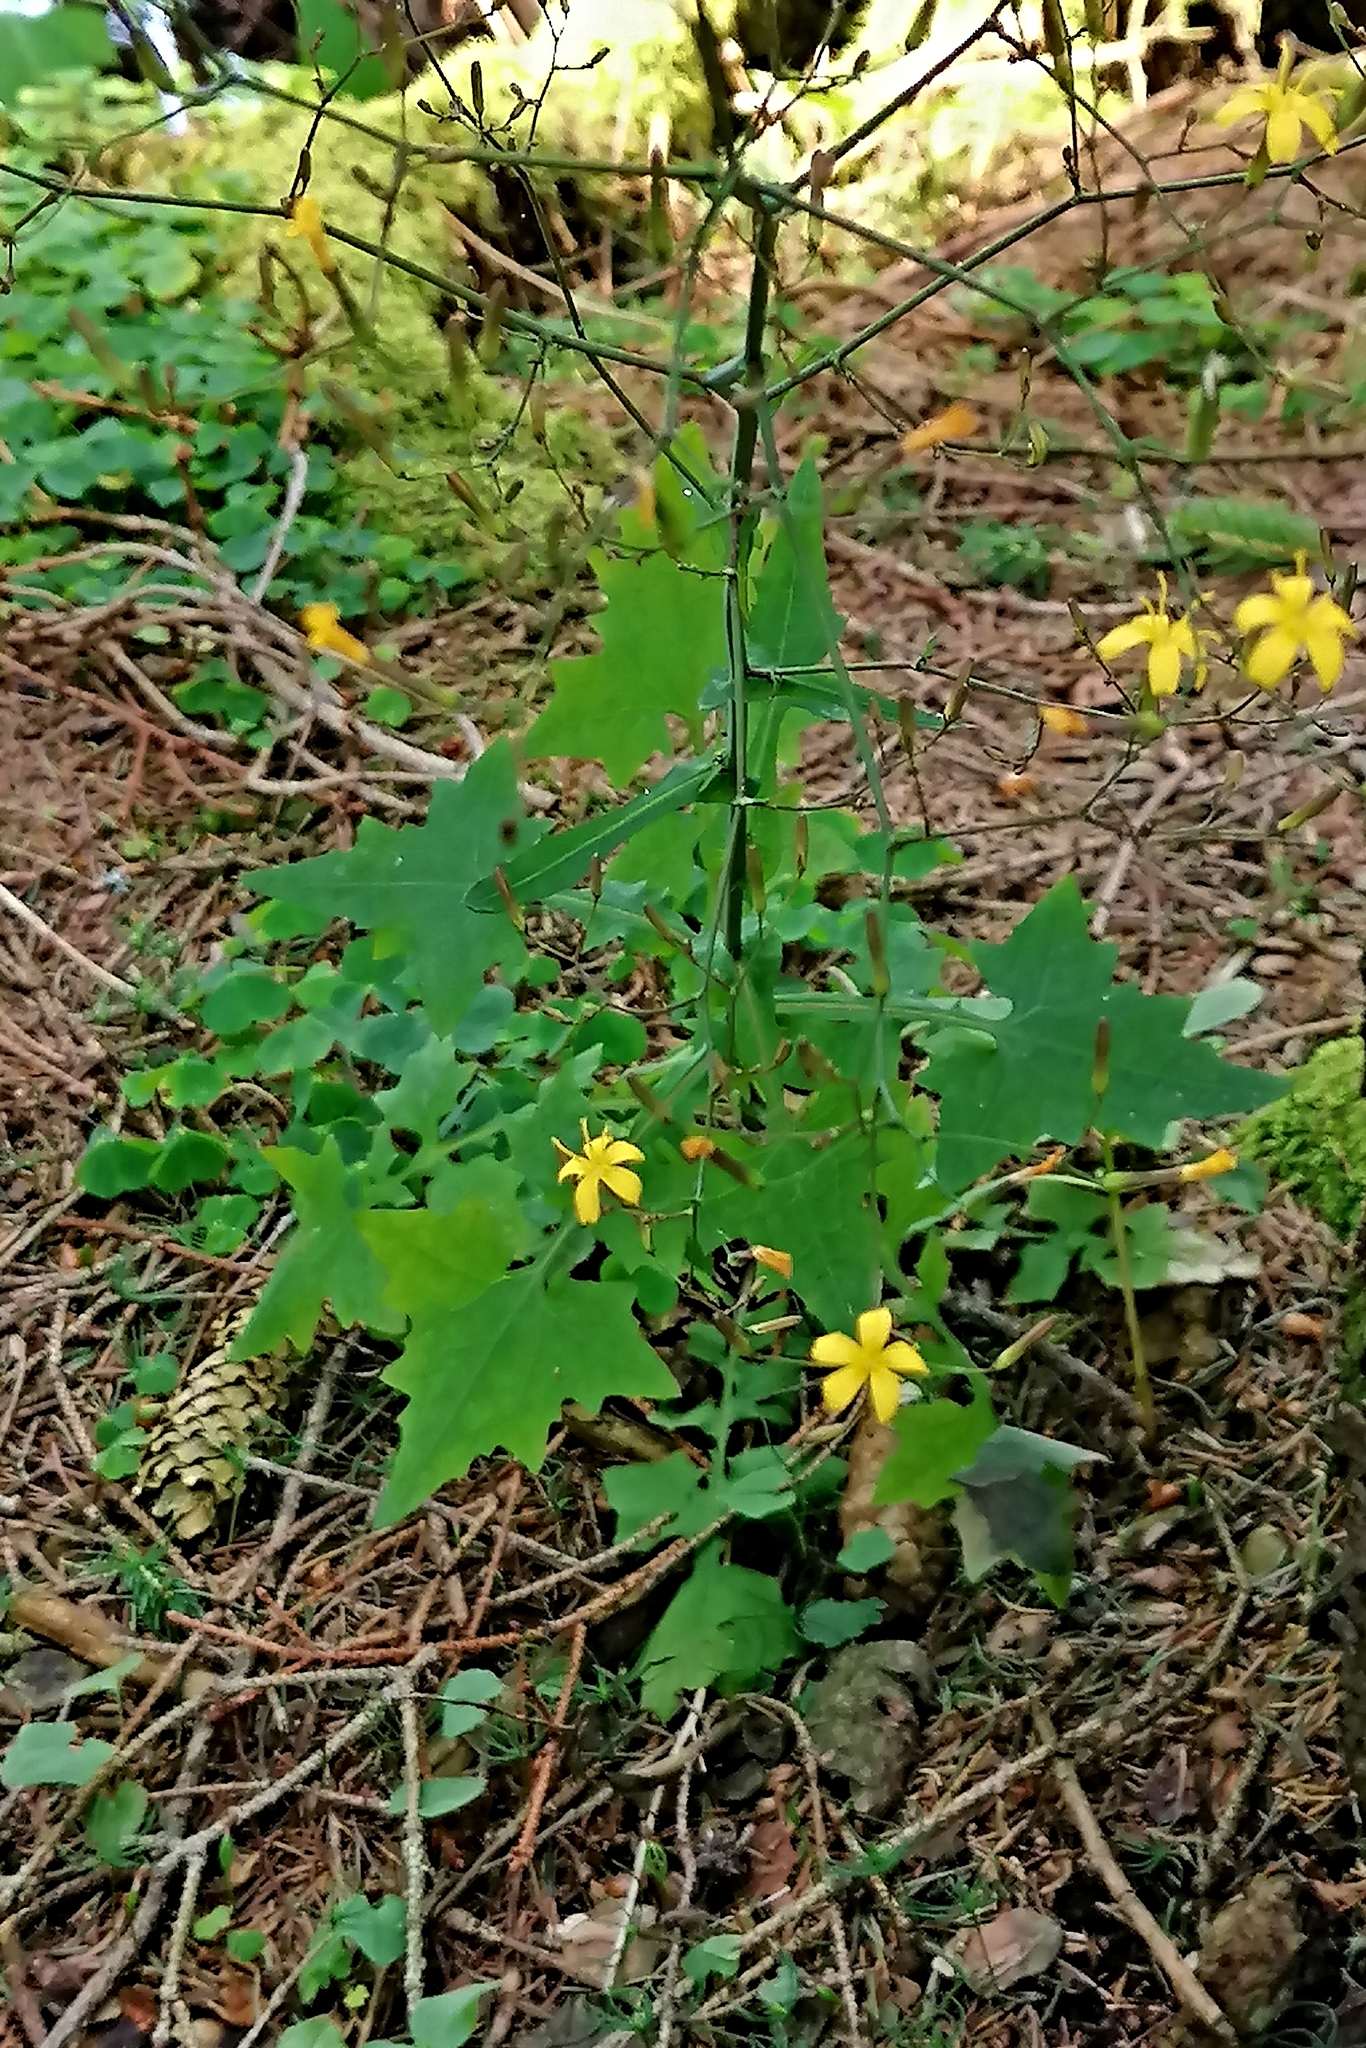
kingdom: Plantae
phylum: Tracheophyta
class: Magnoliopsida
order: Asterales
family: Asteraceae
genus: Mycelis
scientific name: Mycelis muralis
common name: Wall lettuce
